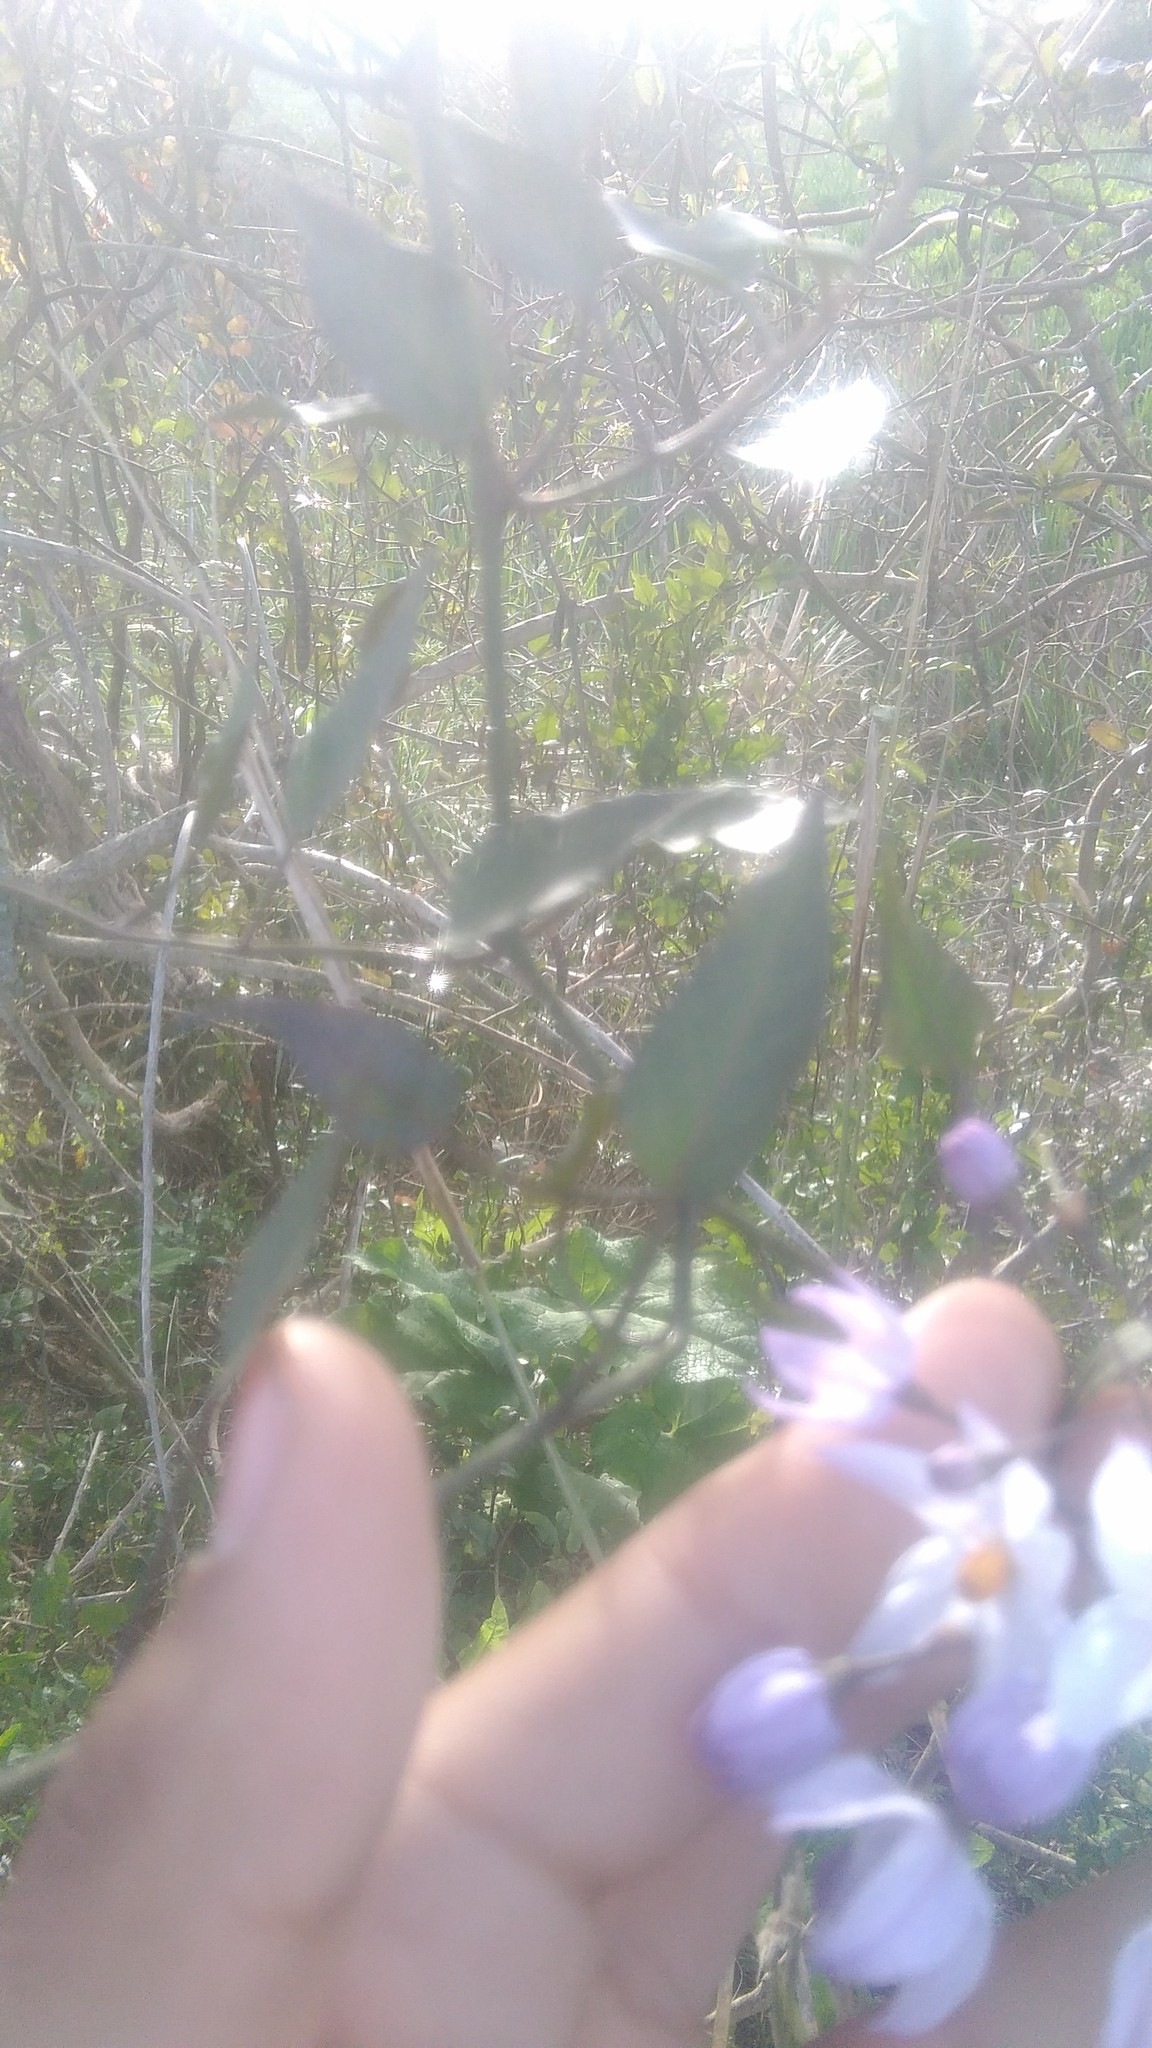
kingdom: Plantae
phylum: Tracheophyta
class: Magnoliopsida
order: Solanales
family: Solanaceae
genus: Solanum
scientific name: Solanum laxum
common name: Nightshade
